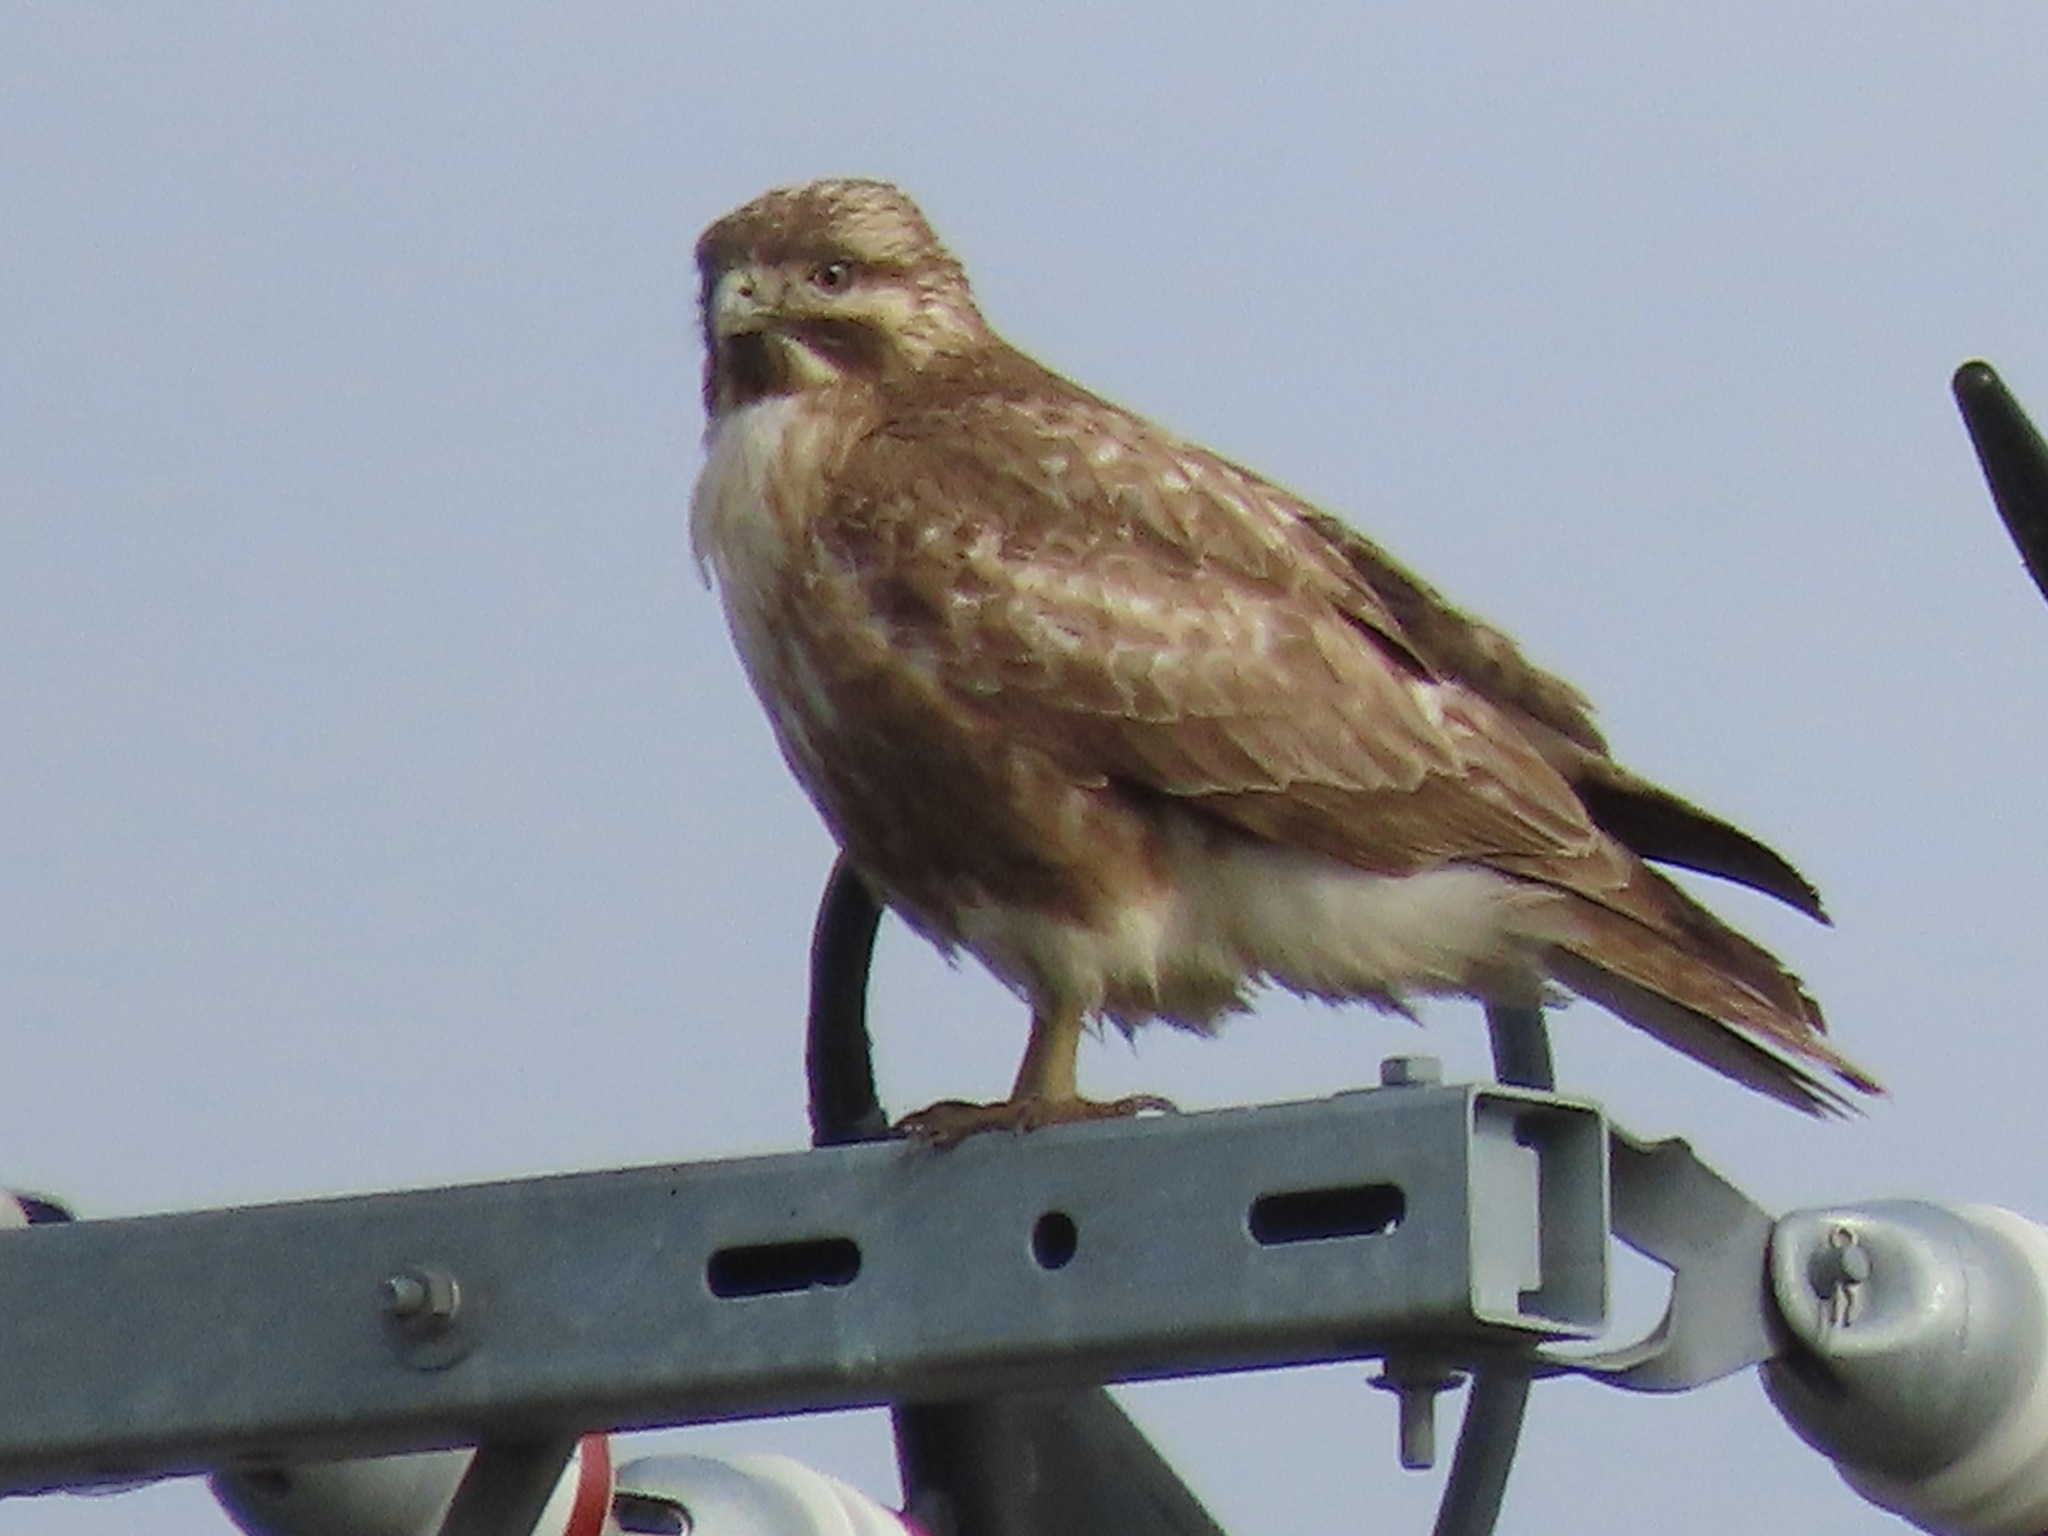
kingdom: Animalia
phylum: Chordata
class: Aves
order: Accipitriformes
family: Accipitridae
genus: Buteo
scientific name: Buteo japonicus
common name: Eastern buzzard
